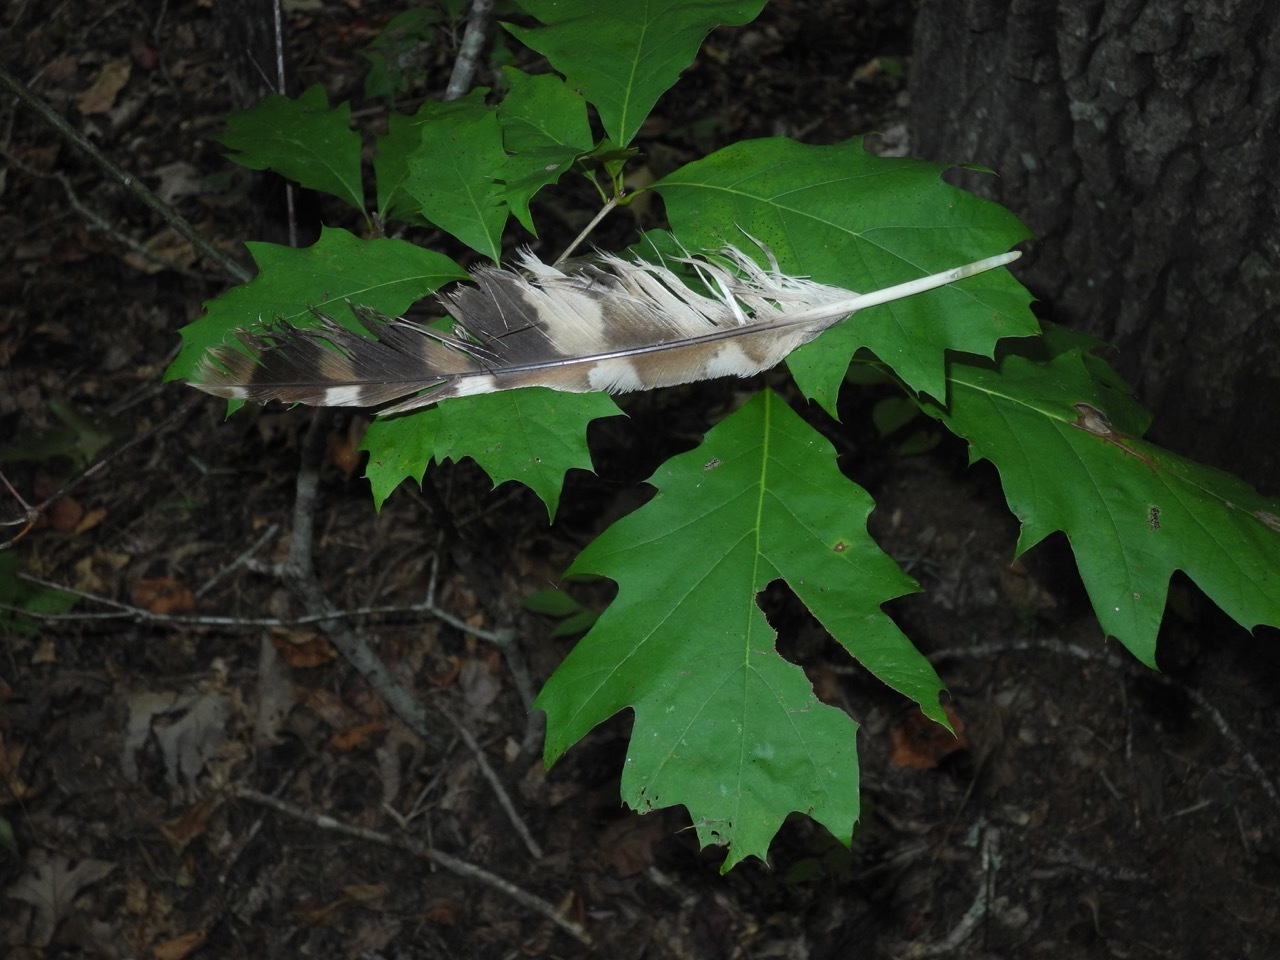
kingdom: Animalia
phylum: Chordata
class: Aves
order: Strigiformes
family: Strigidae
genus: Strix
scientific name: Strix varia
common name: Barred owl
